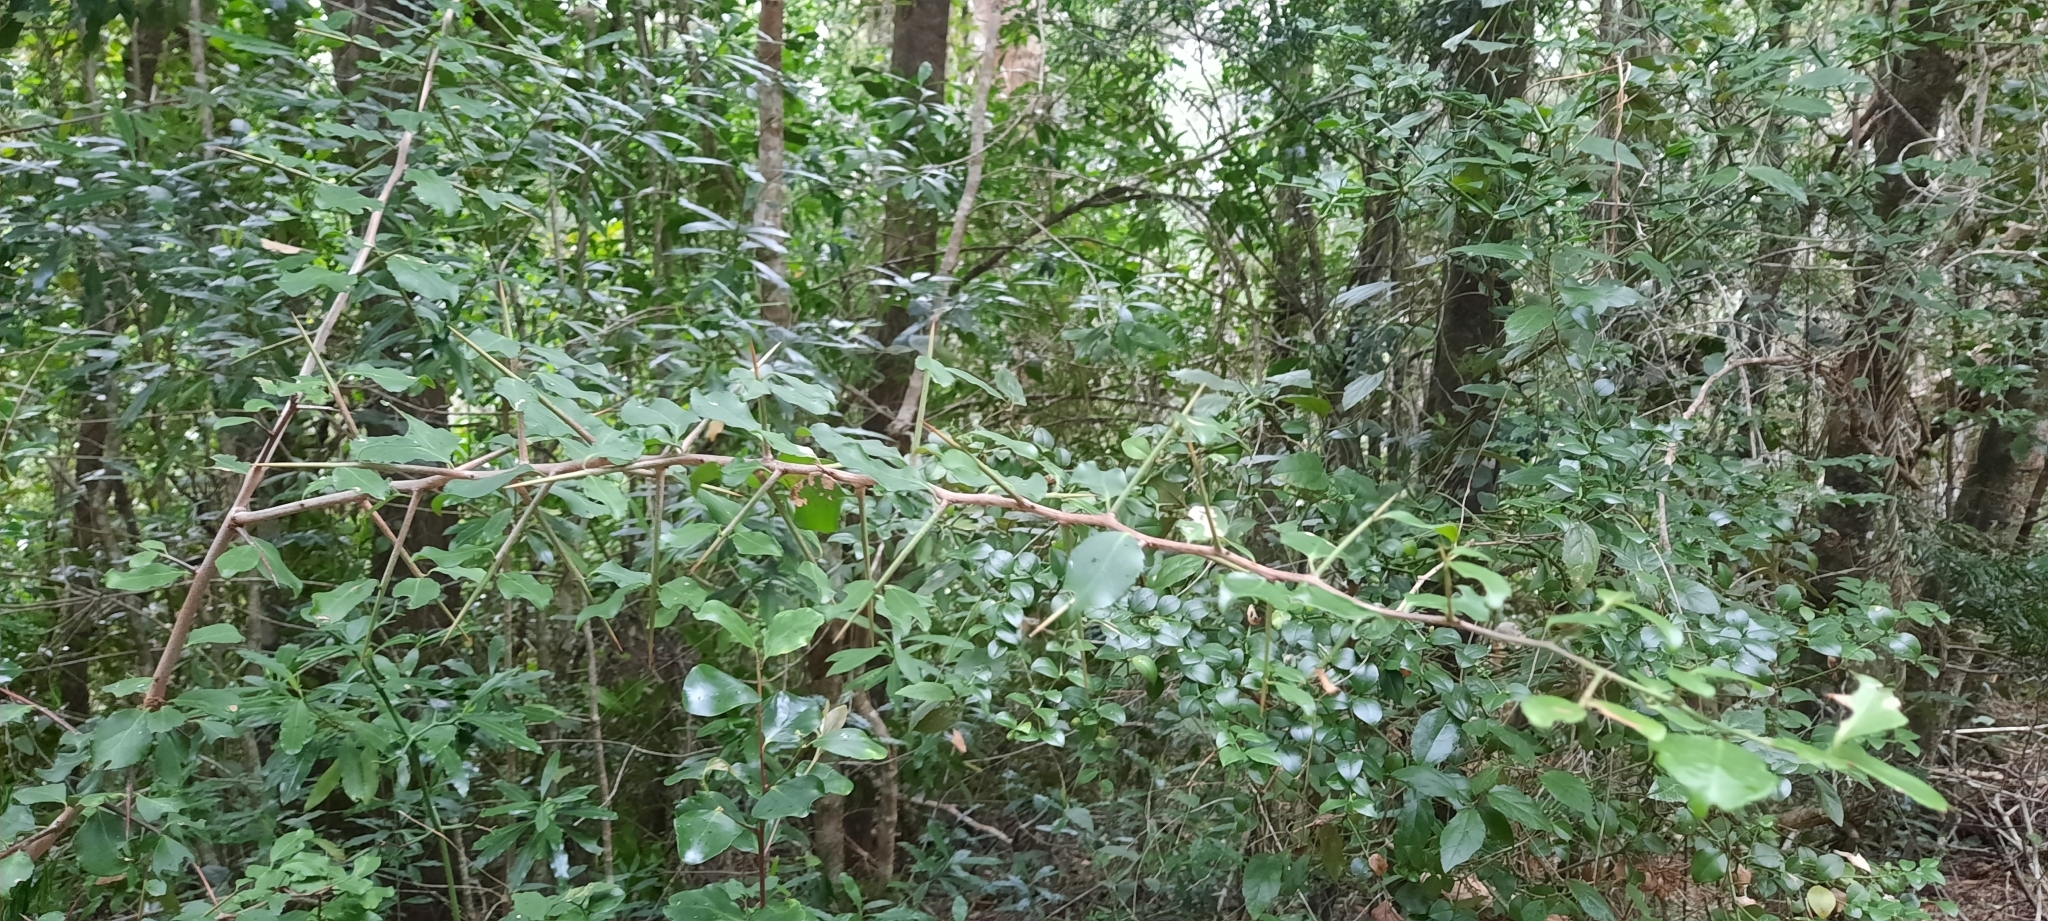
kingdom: Plantae
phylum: Tracheophyta
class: Magnoliopsida
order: Celastrales
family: Celastraceae
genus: Gymnosporia
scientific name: Gymnosporia buxifolia
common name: Common spike-thorn
